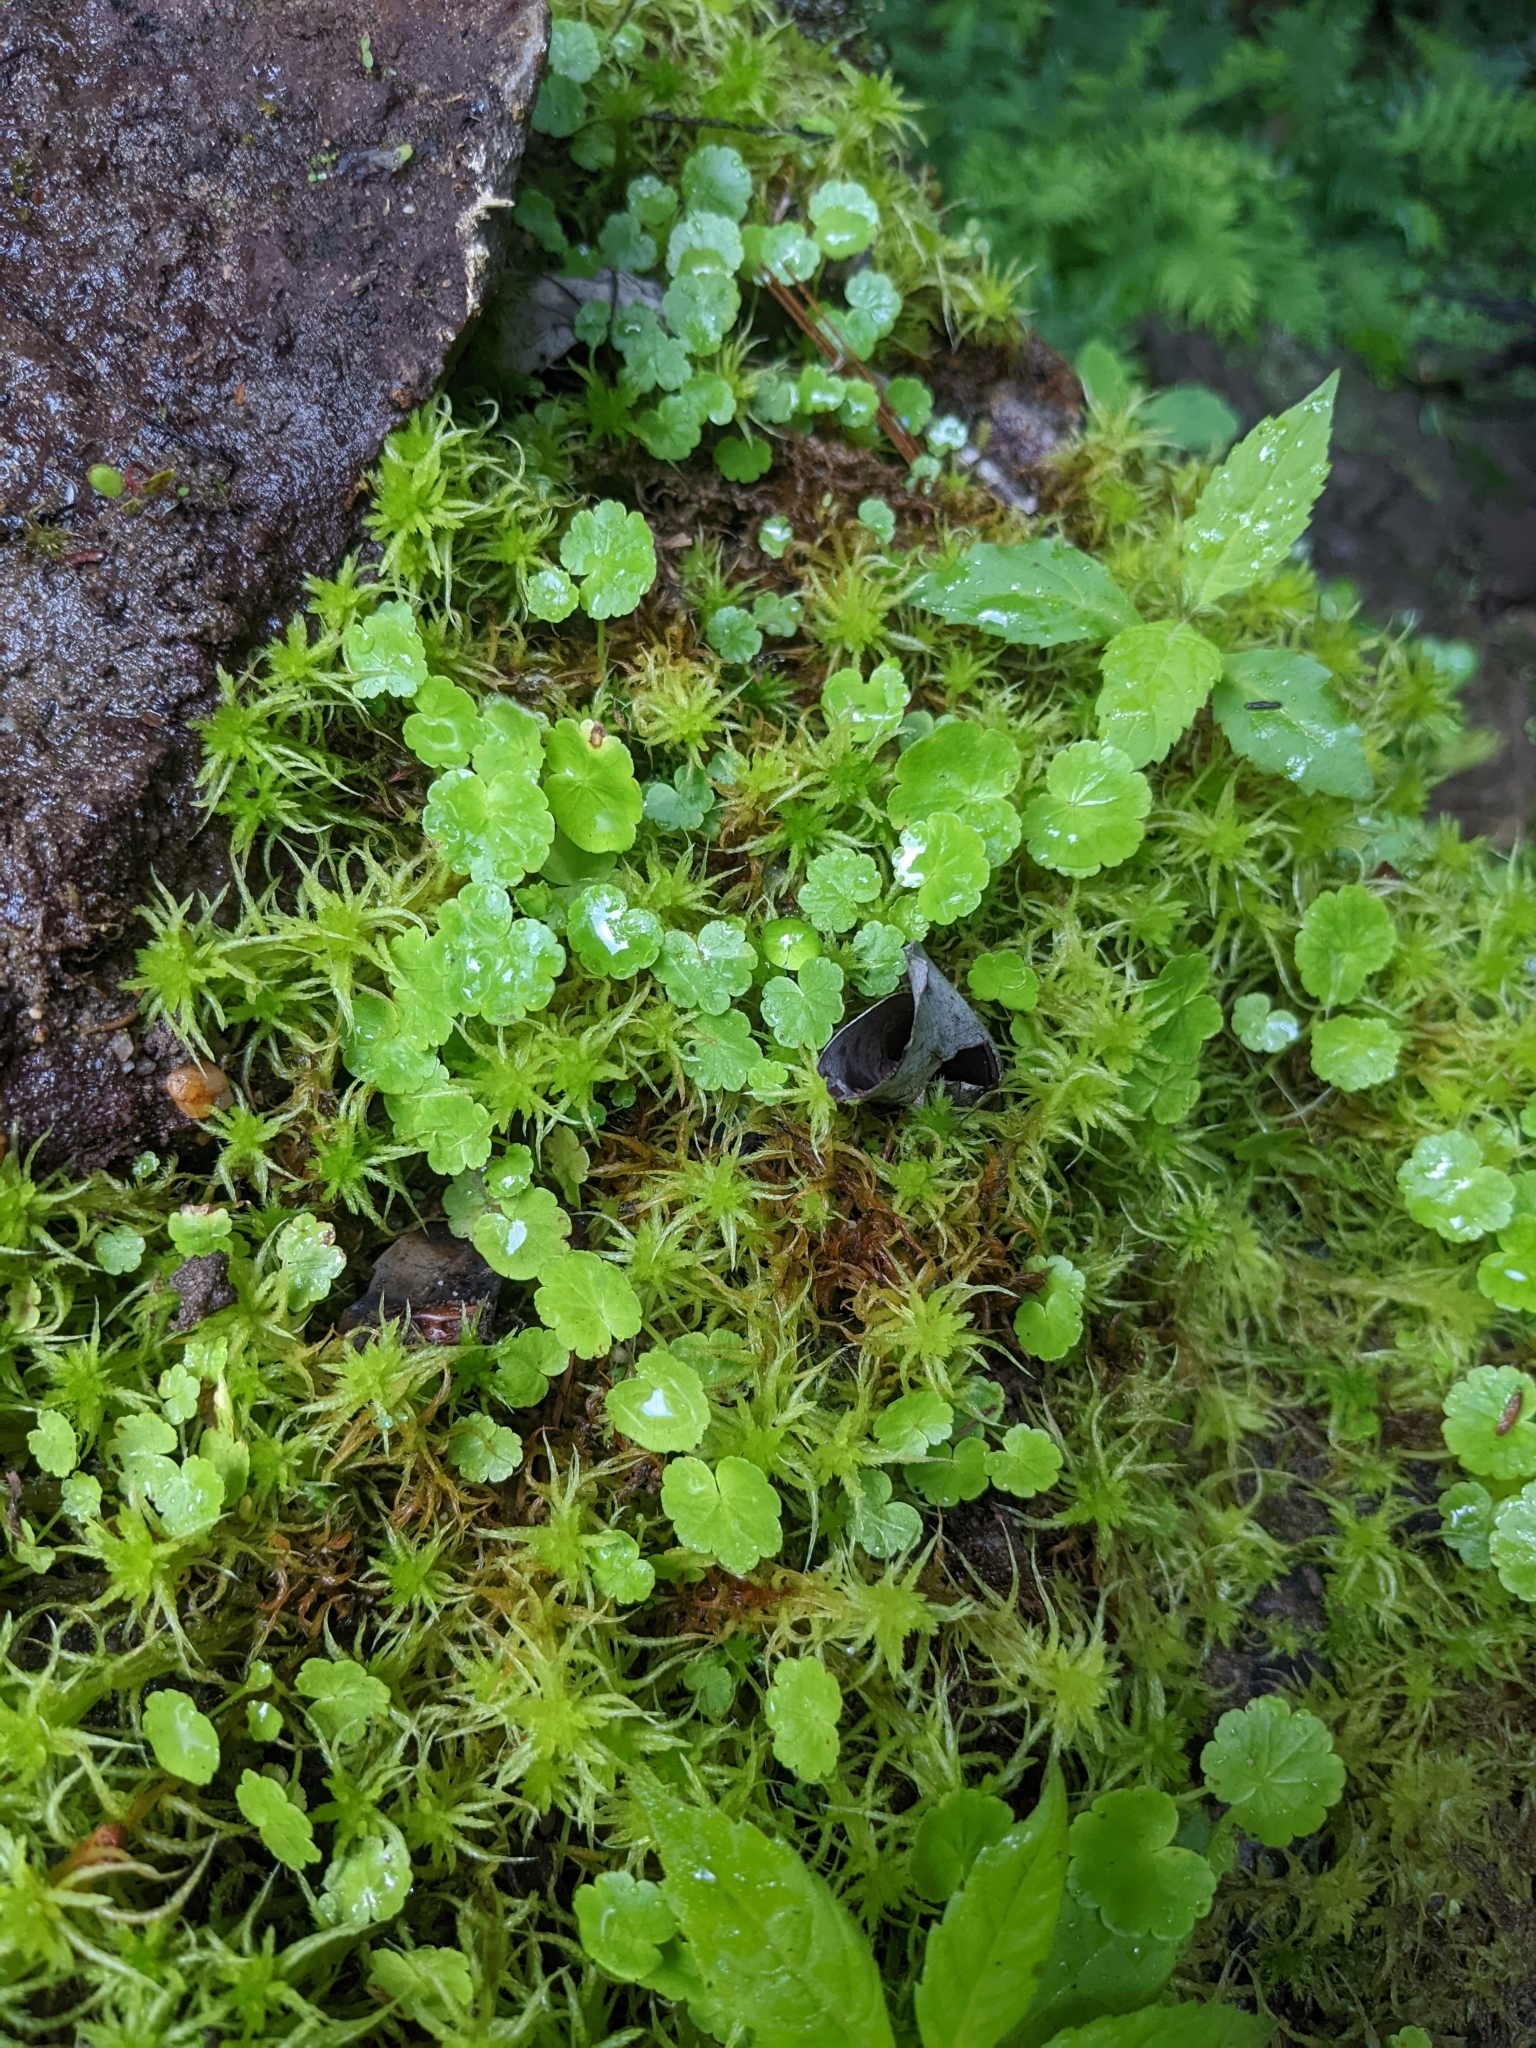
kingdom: Plantae
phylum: Tracheophyta
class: Magnoliopsida
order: Apiales
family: Araliaceae
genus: Hydrocotyle
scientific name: Hydrocotyle americana
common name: American water-pennywort
